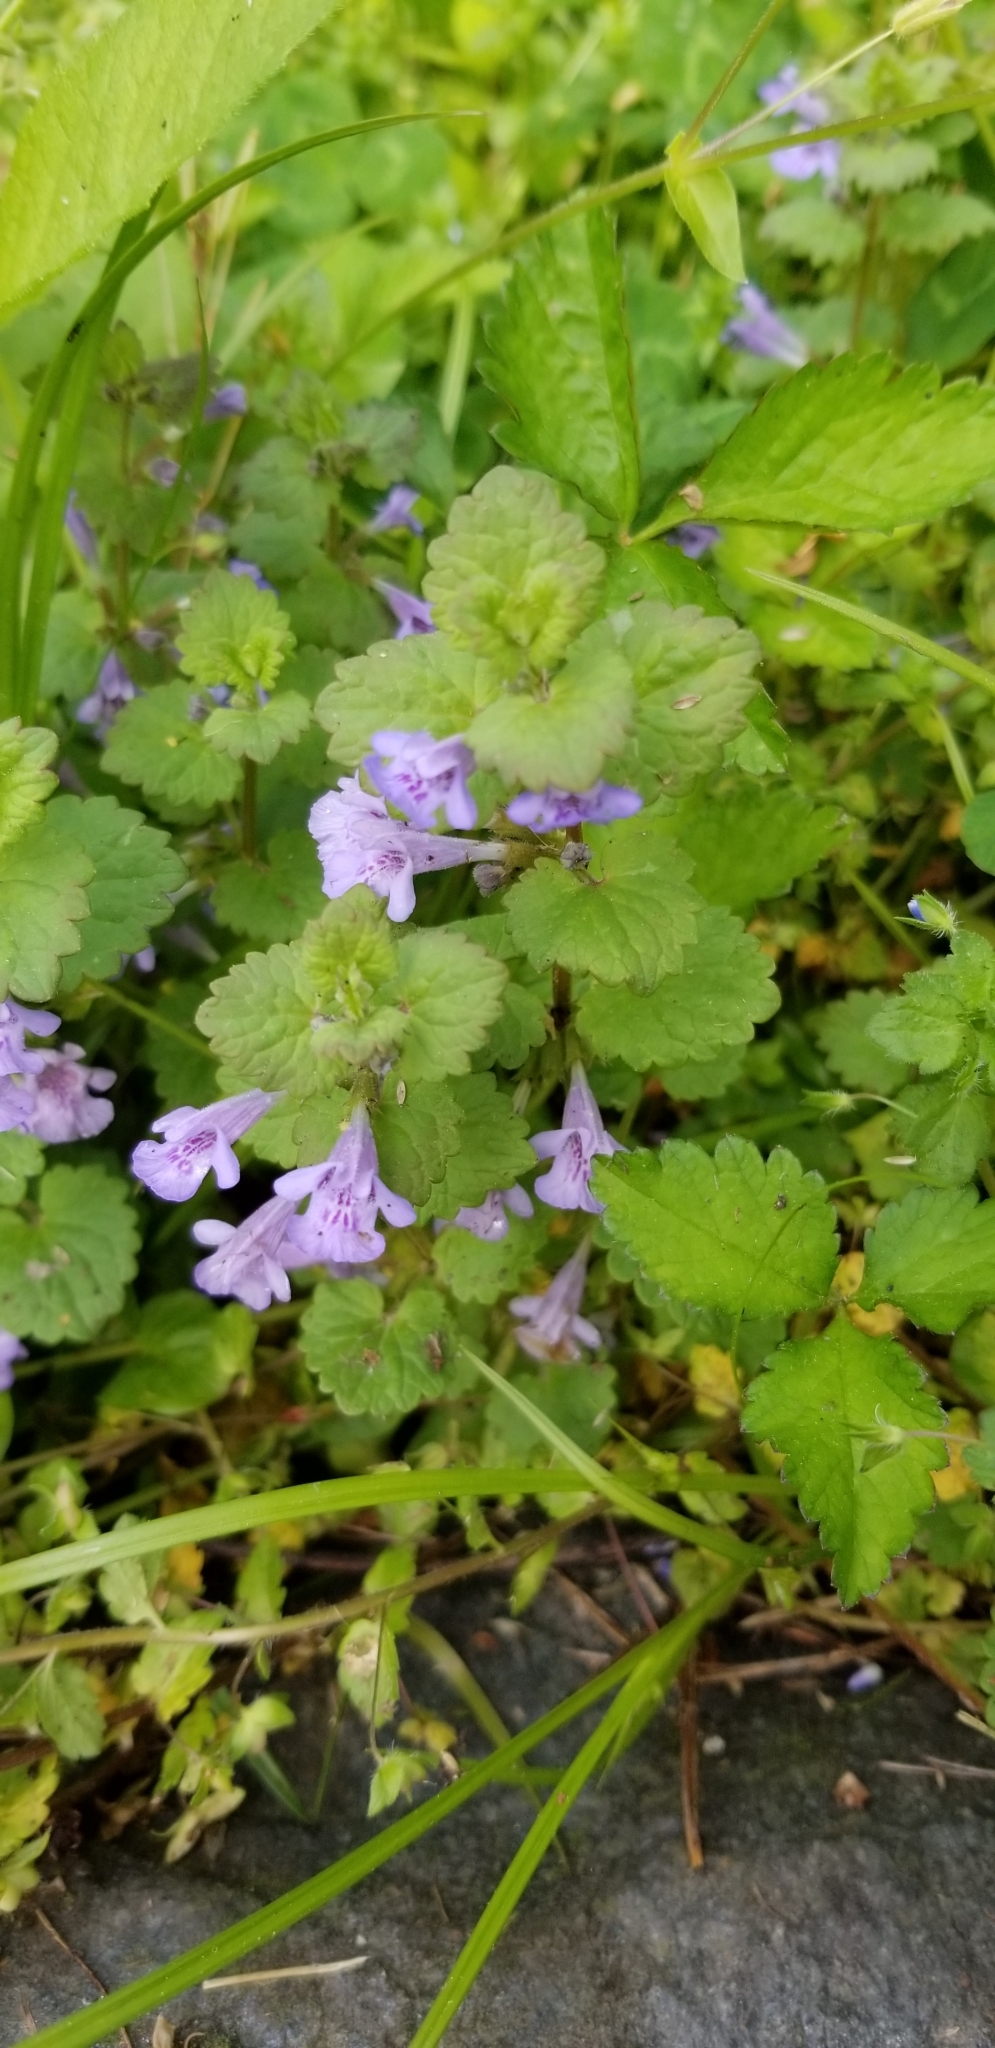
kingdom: Plantae
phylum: Tracheophyta
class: Magnoliopsida
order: Lamiales
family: Lamiaceae
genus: Glechoma
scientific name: Glechoma hederacea
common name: Ground ivy
